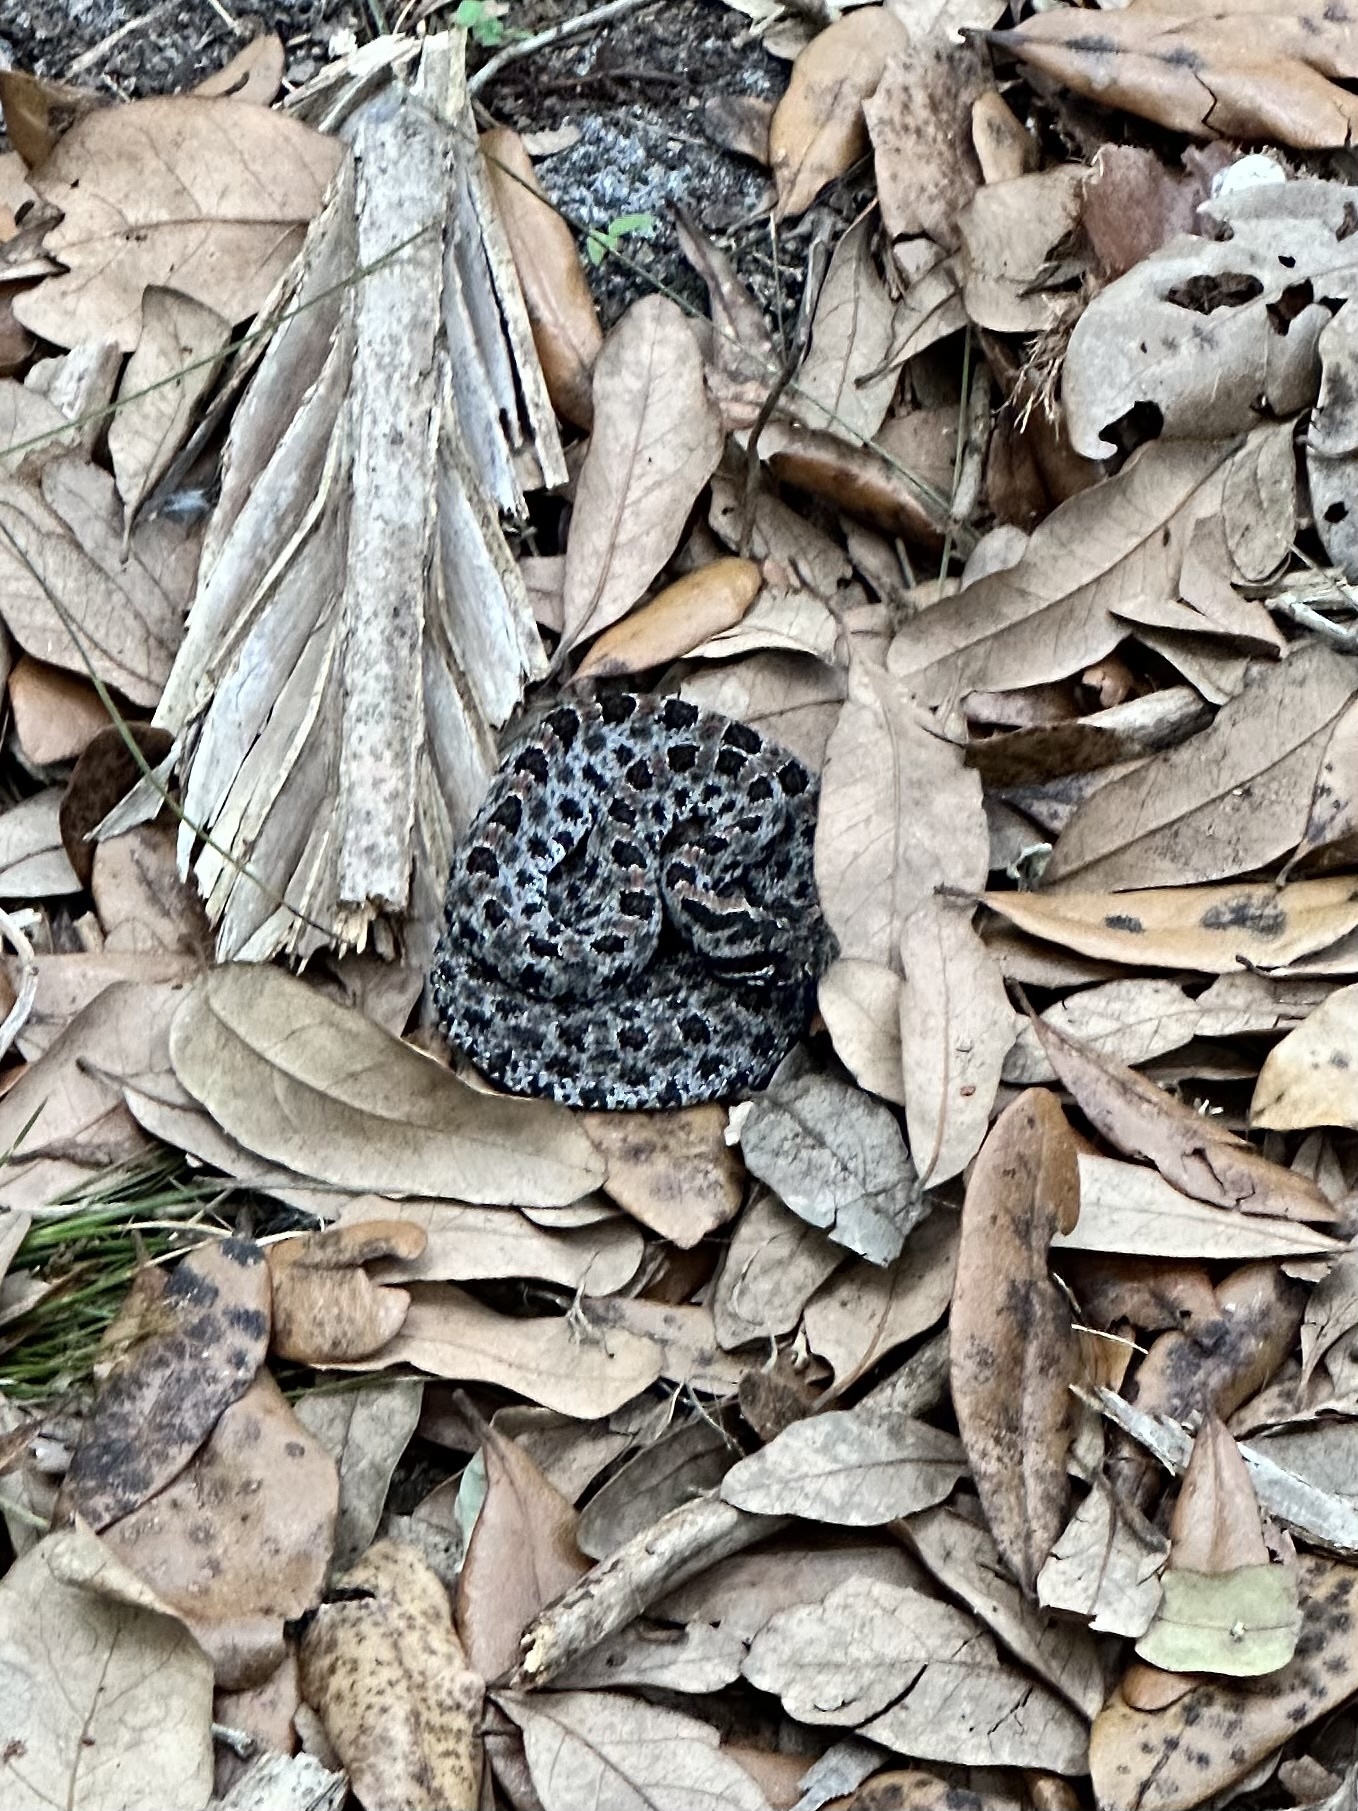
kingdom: Animalia
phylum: Chordata
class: Squamata
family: Viperidae
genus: Sistrurus
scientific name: Sistrurus miliarius
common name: Pygmy rattlesnake
